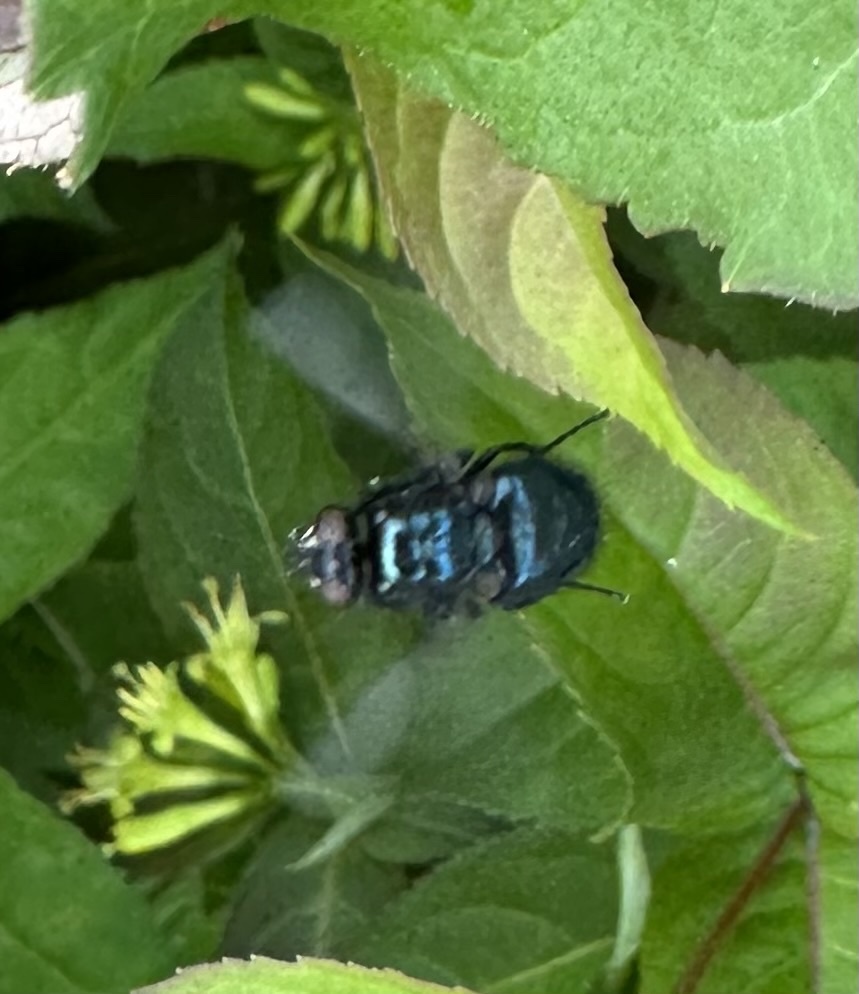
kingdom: Animalia
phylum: Arthropoda
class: Insecta
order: Diptera
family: Calliphoridae
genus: Protophormia
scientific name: Protophormia terraenovae
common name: Blackbottle
